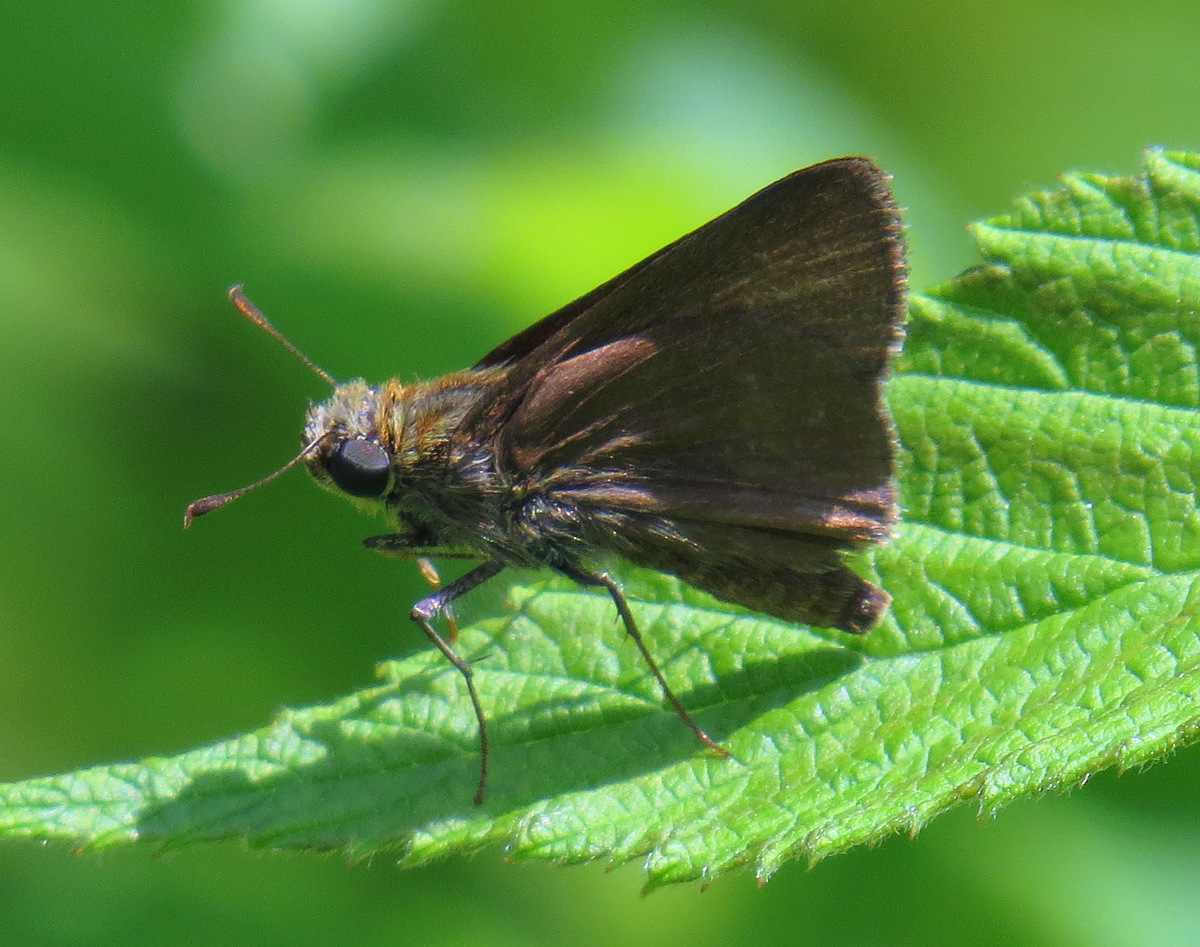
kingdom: Animalia
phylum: Arthropoda
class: Insecta
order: Lepidoptera
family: Hesperiidae
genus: Euphyes
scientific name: Euphyes vestris
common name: Dun skipper
